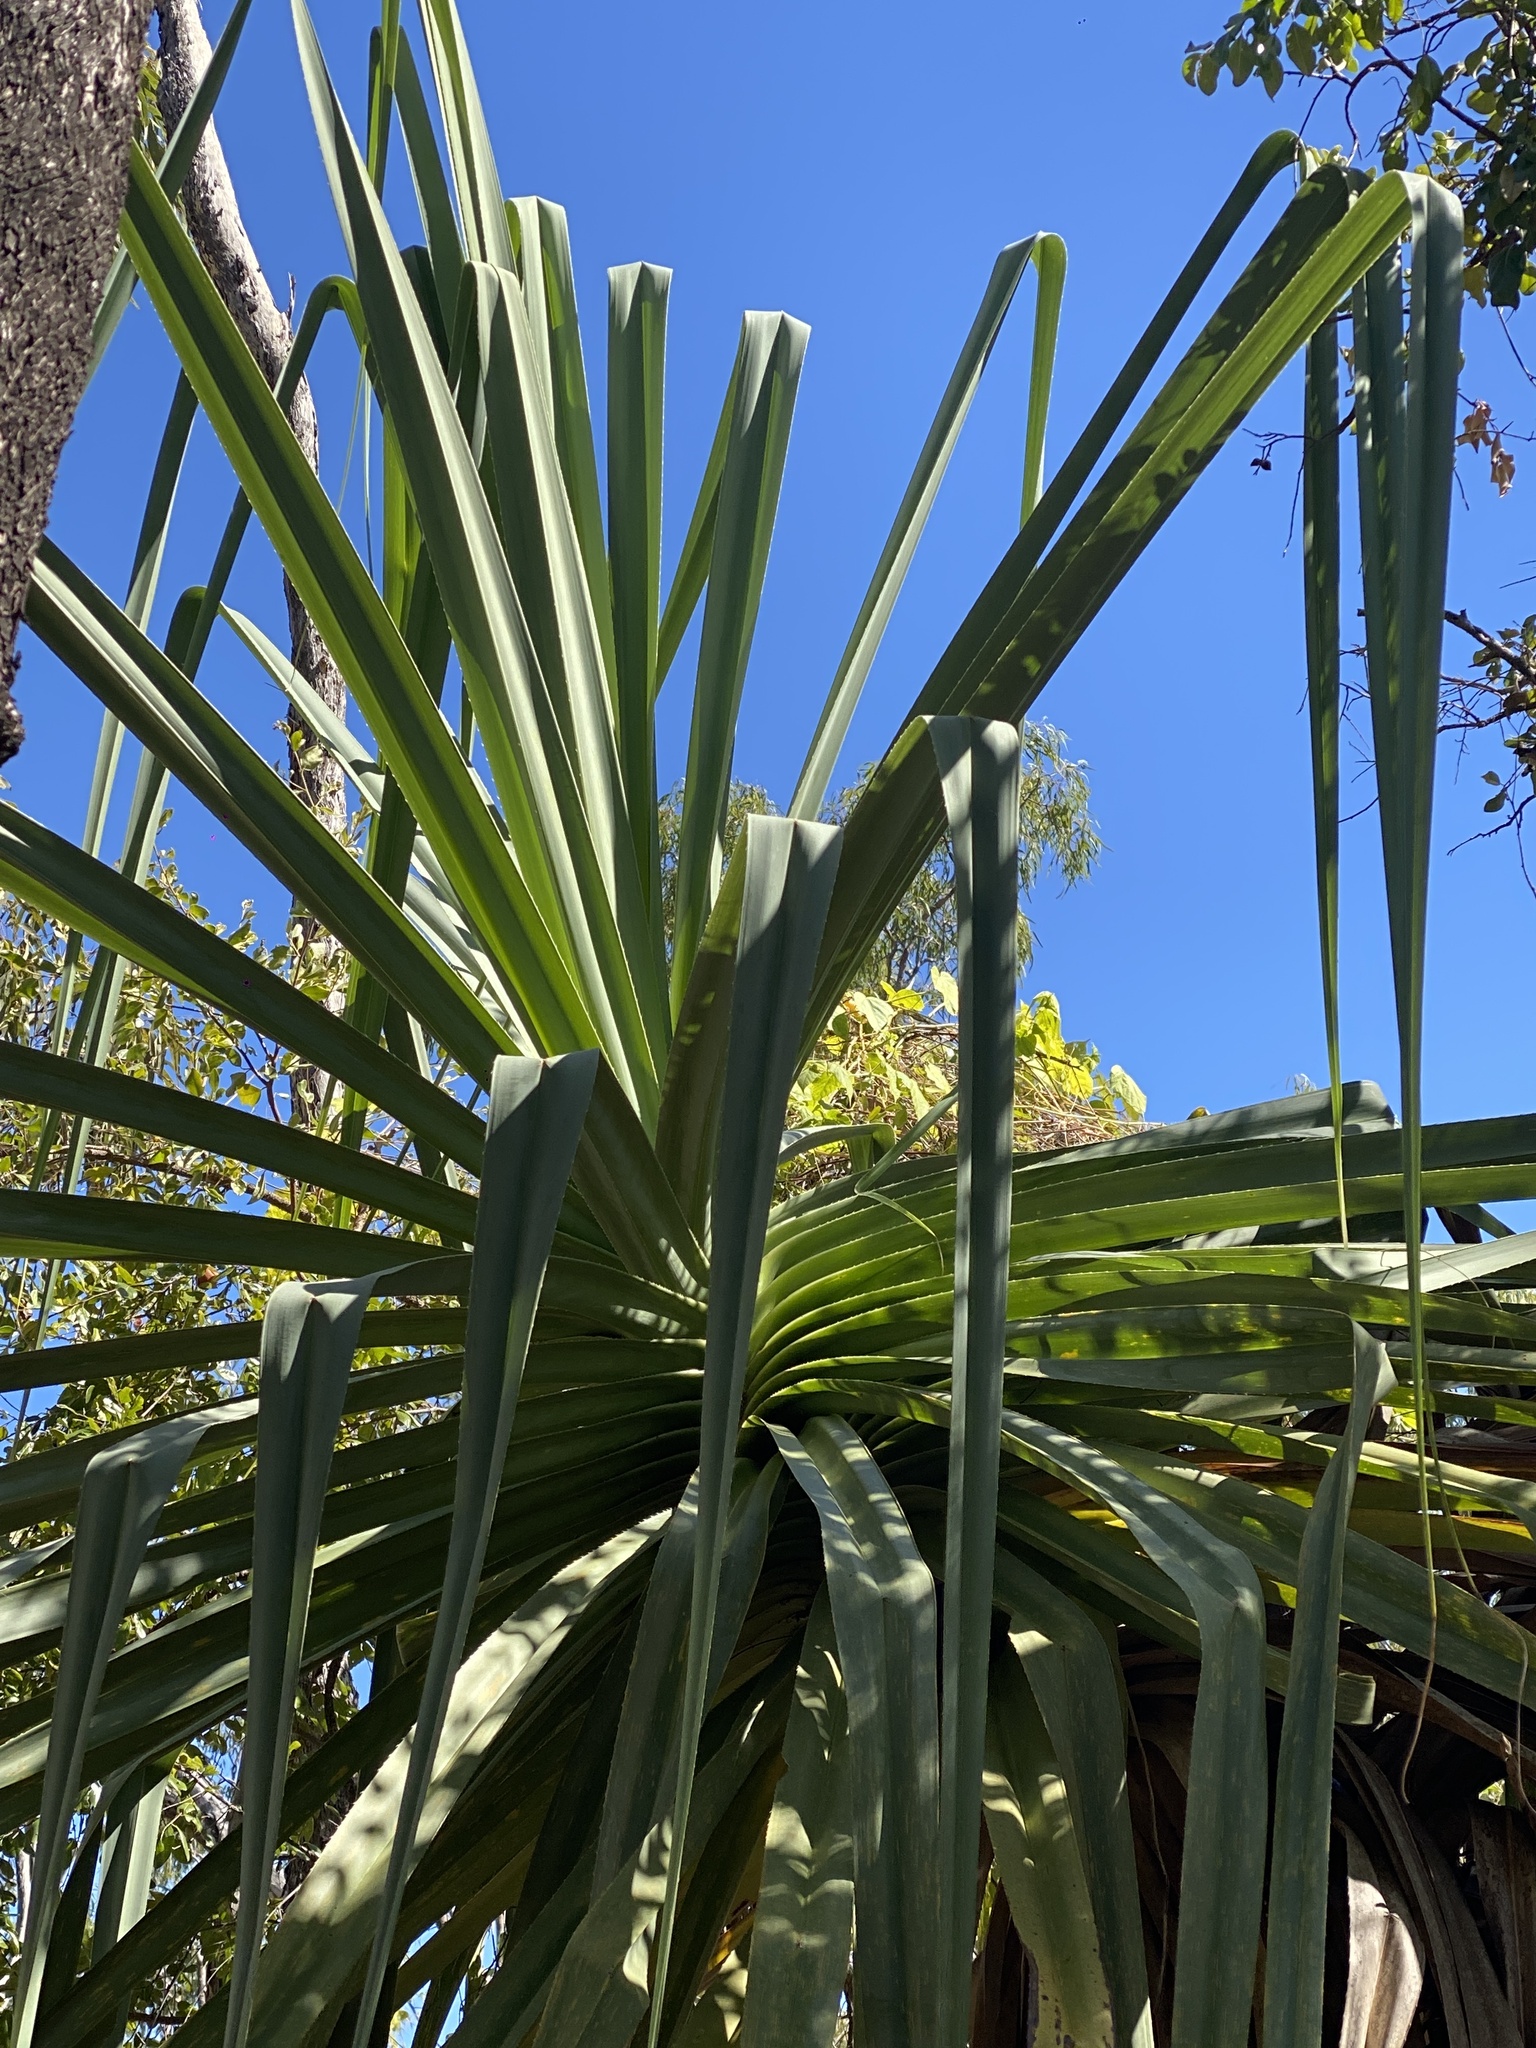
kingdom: Plantae
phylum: Tracheophyta
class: Liliopsida
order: Pandanales
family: Pandanaceae
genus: Pandanus
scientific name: Pandanus spiralis
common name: Screw-pine
